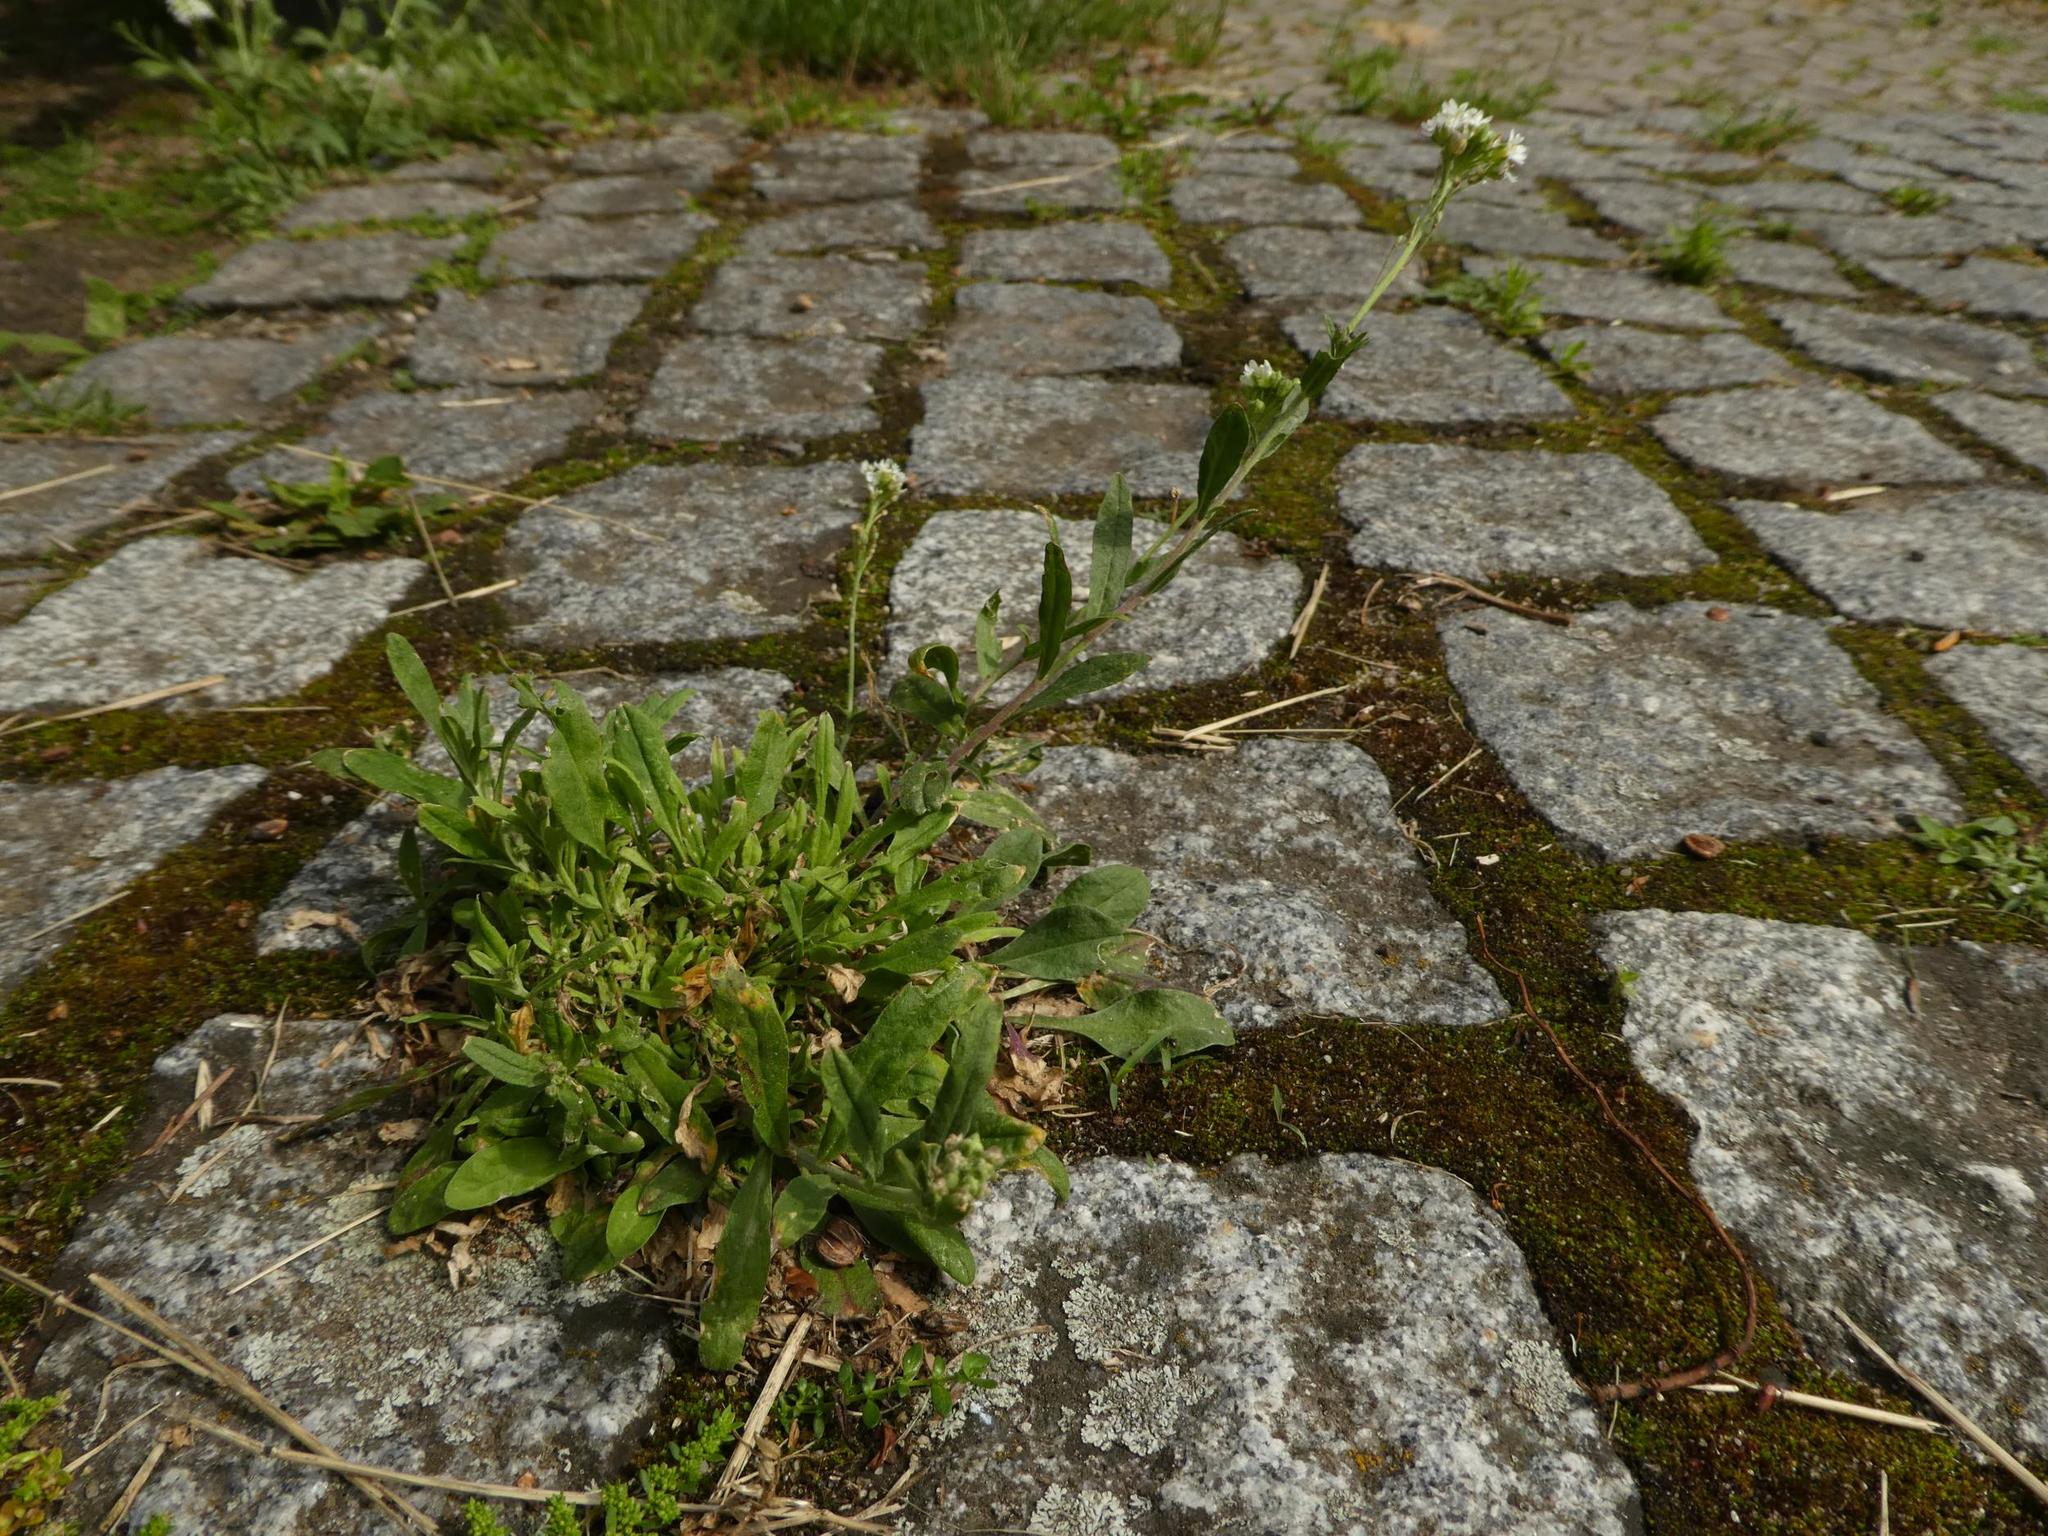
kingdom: Plantae
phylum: Tracheophyta
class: Magnoliopsida
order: Brassicales
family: Brassicaceae
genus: Capsella
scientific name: Capsella bursa-pastoris
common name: Shepherd's purse
